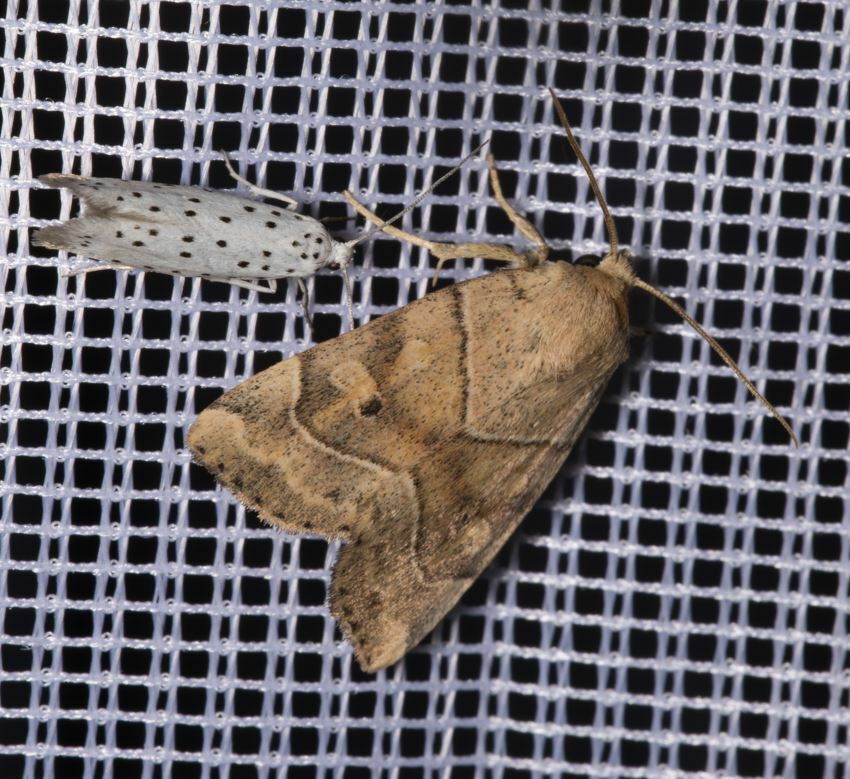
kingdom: Animalia
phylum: Arthropoda
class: Insecta
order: Lepidoptera
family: Noctuidae
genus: Cosmia
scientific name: Cosmia trapezina
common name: Dun-bar
